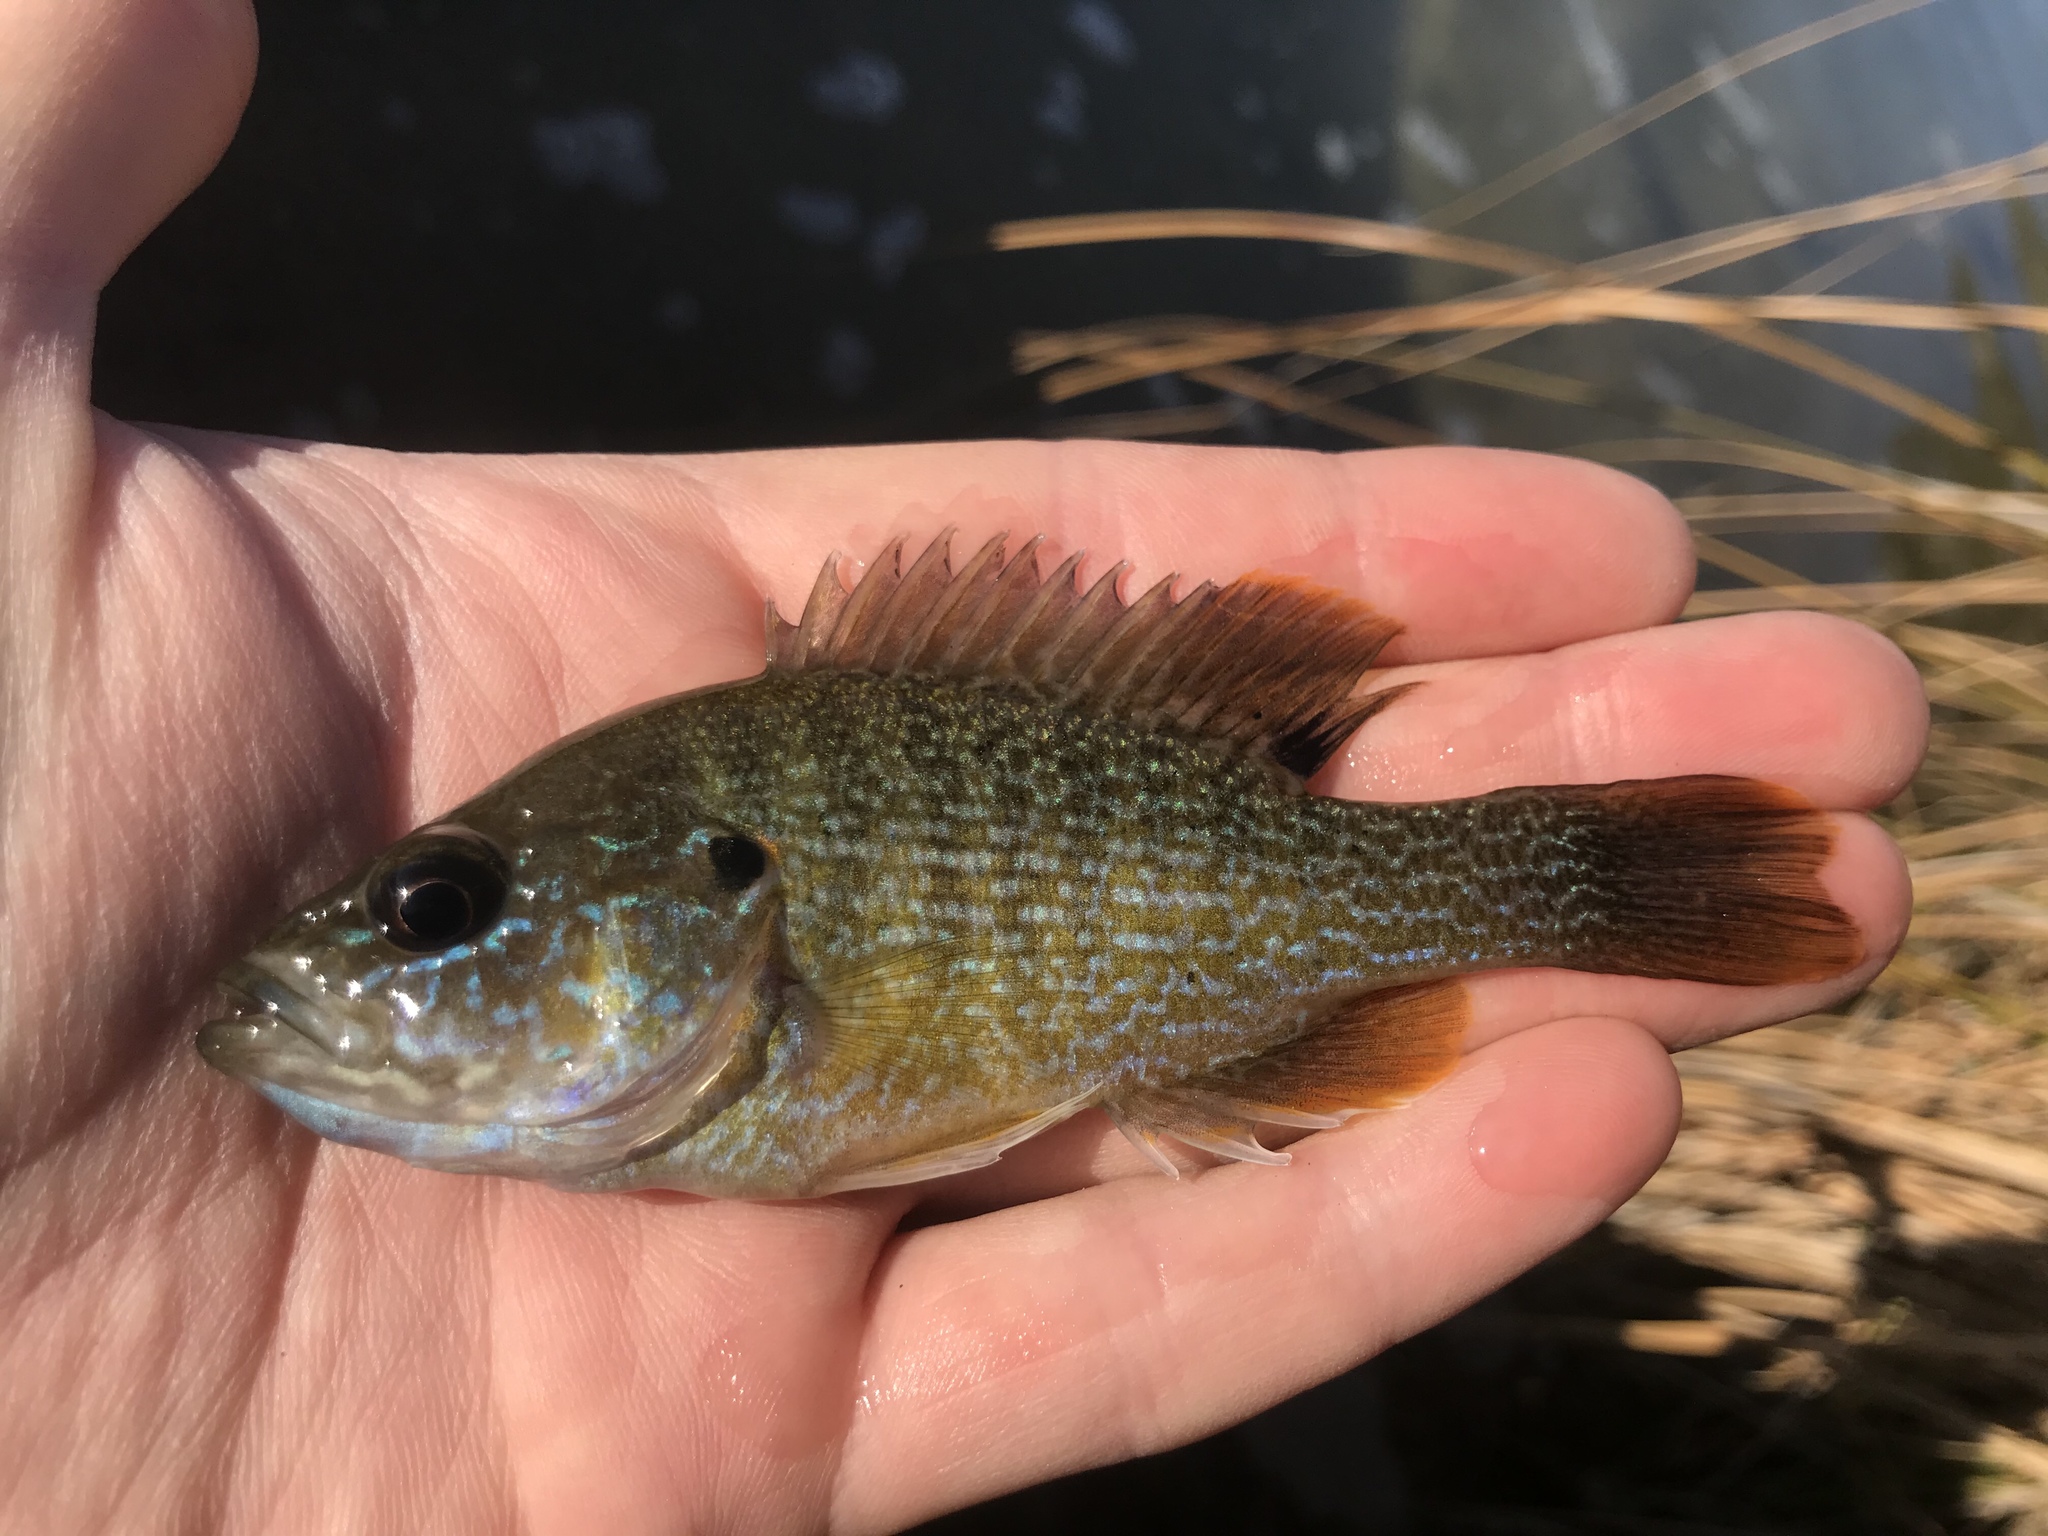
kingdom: Animalia
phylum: Chordata
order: Perciformes
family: Centrarchidae
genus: Lepomis
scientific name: Lepomis cyanellus
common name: Green sunfish
